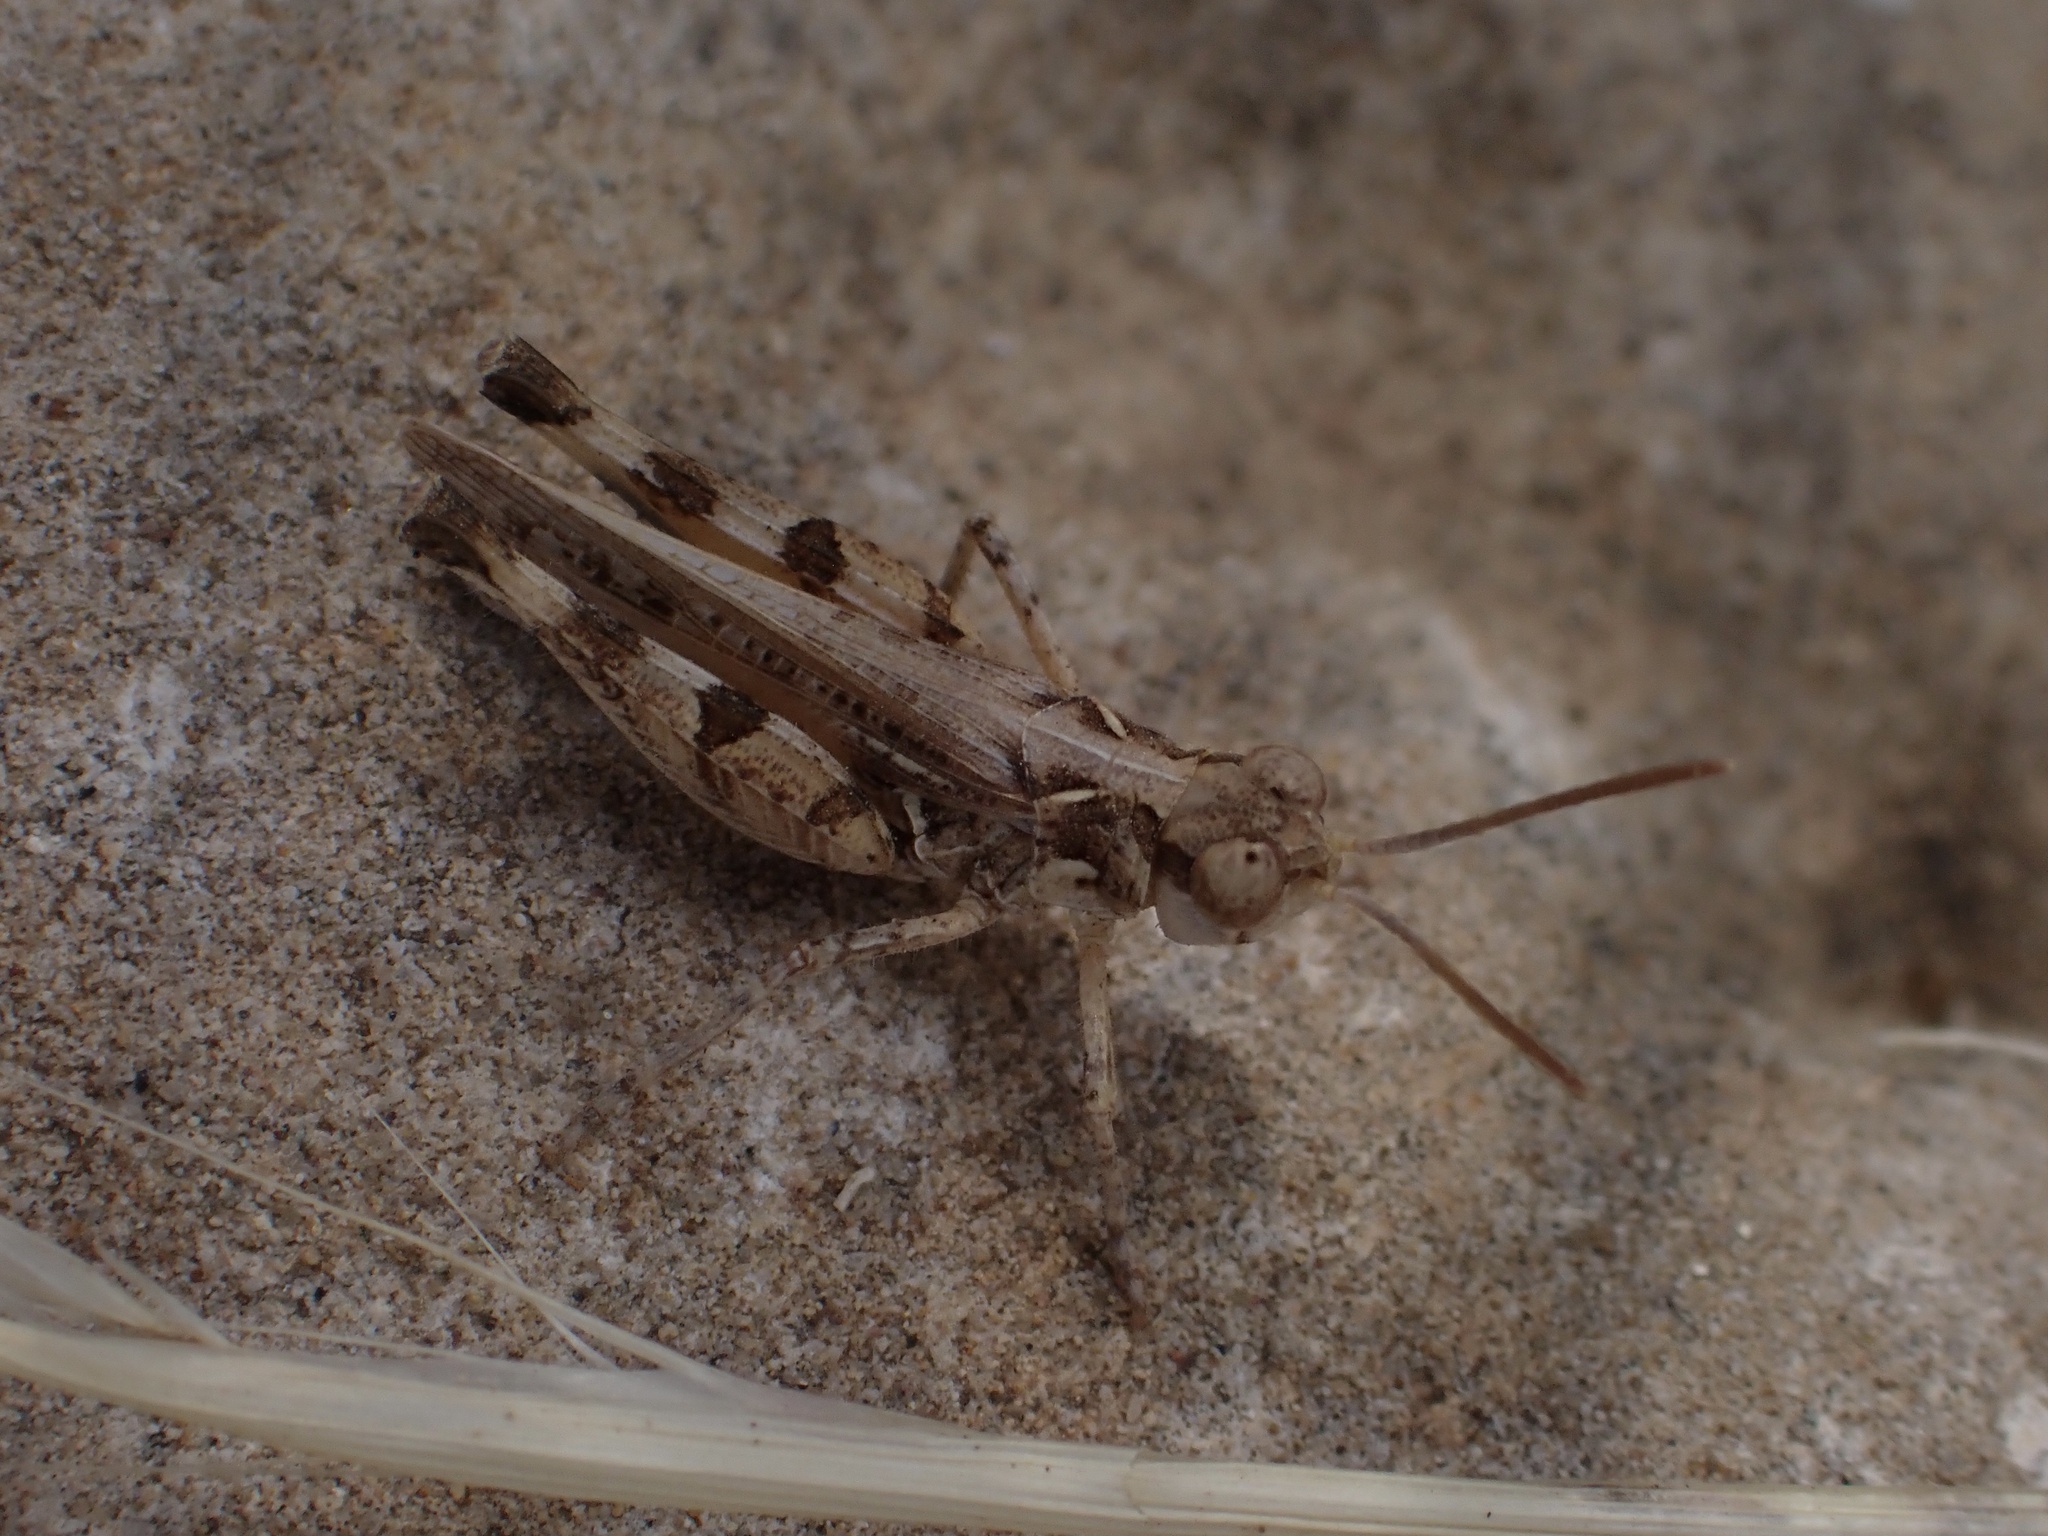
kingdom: Animalia
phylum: Arthropoda
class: Insecta
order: Orthoptera
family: Acrididae
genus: Dociostaurus
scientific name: Dociostaurus genei
